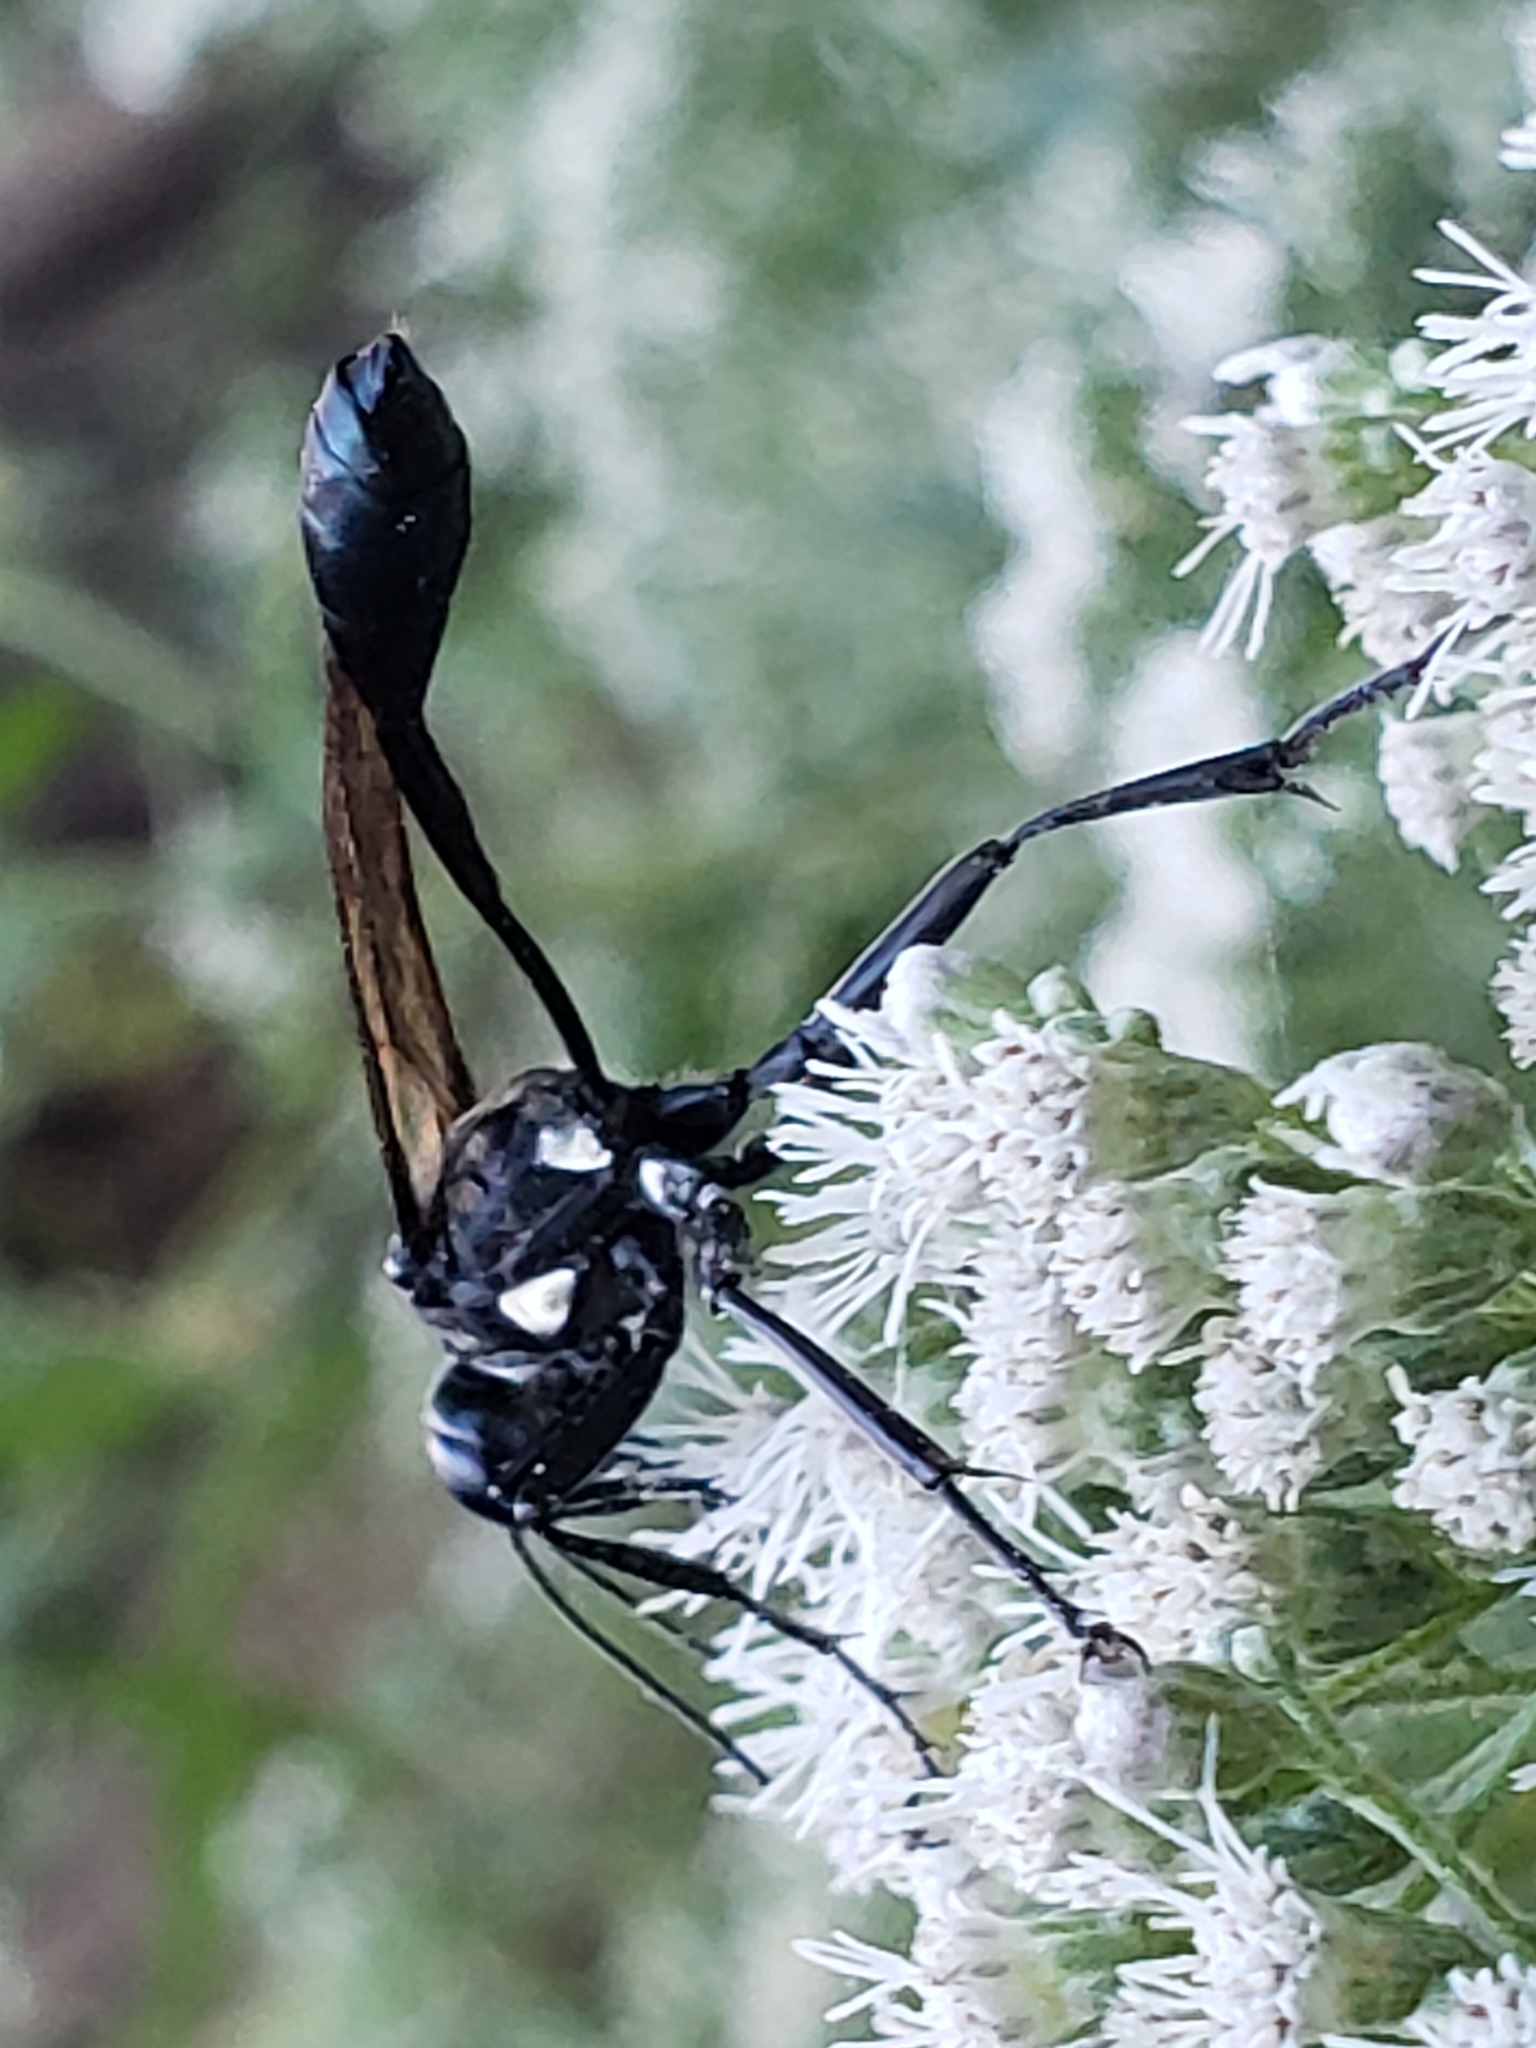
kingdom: Animalia
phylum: Arthropoda
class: Insecta
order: Hymenoptera
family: Sphecidae
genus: Eremnophila
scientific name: Eremnophila aureonotata
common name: Gold-marked thread-waisted wasp
